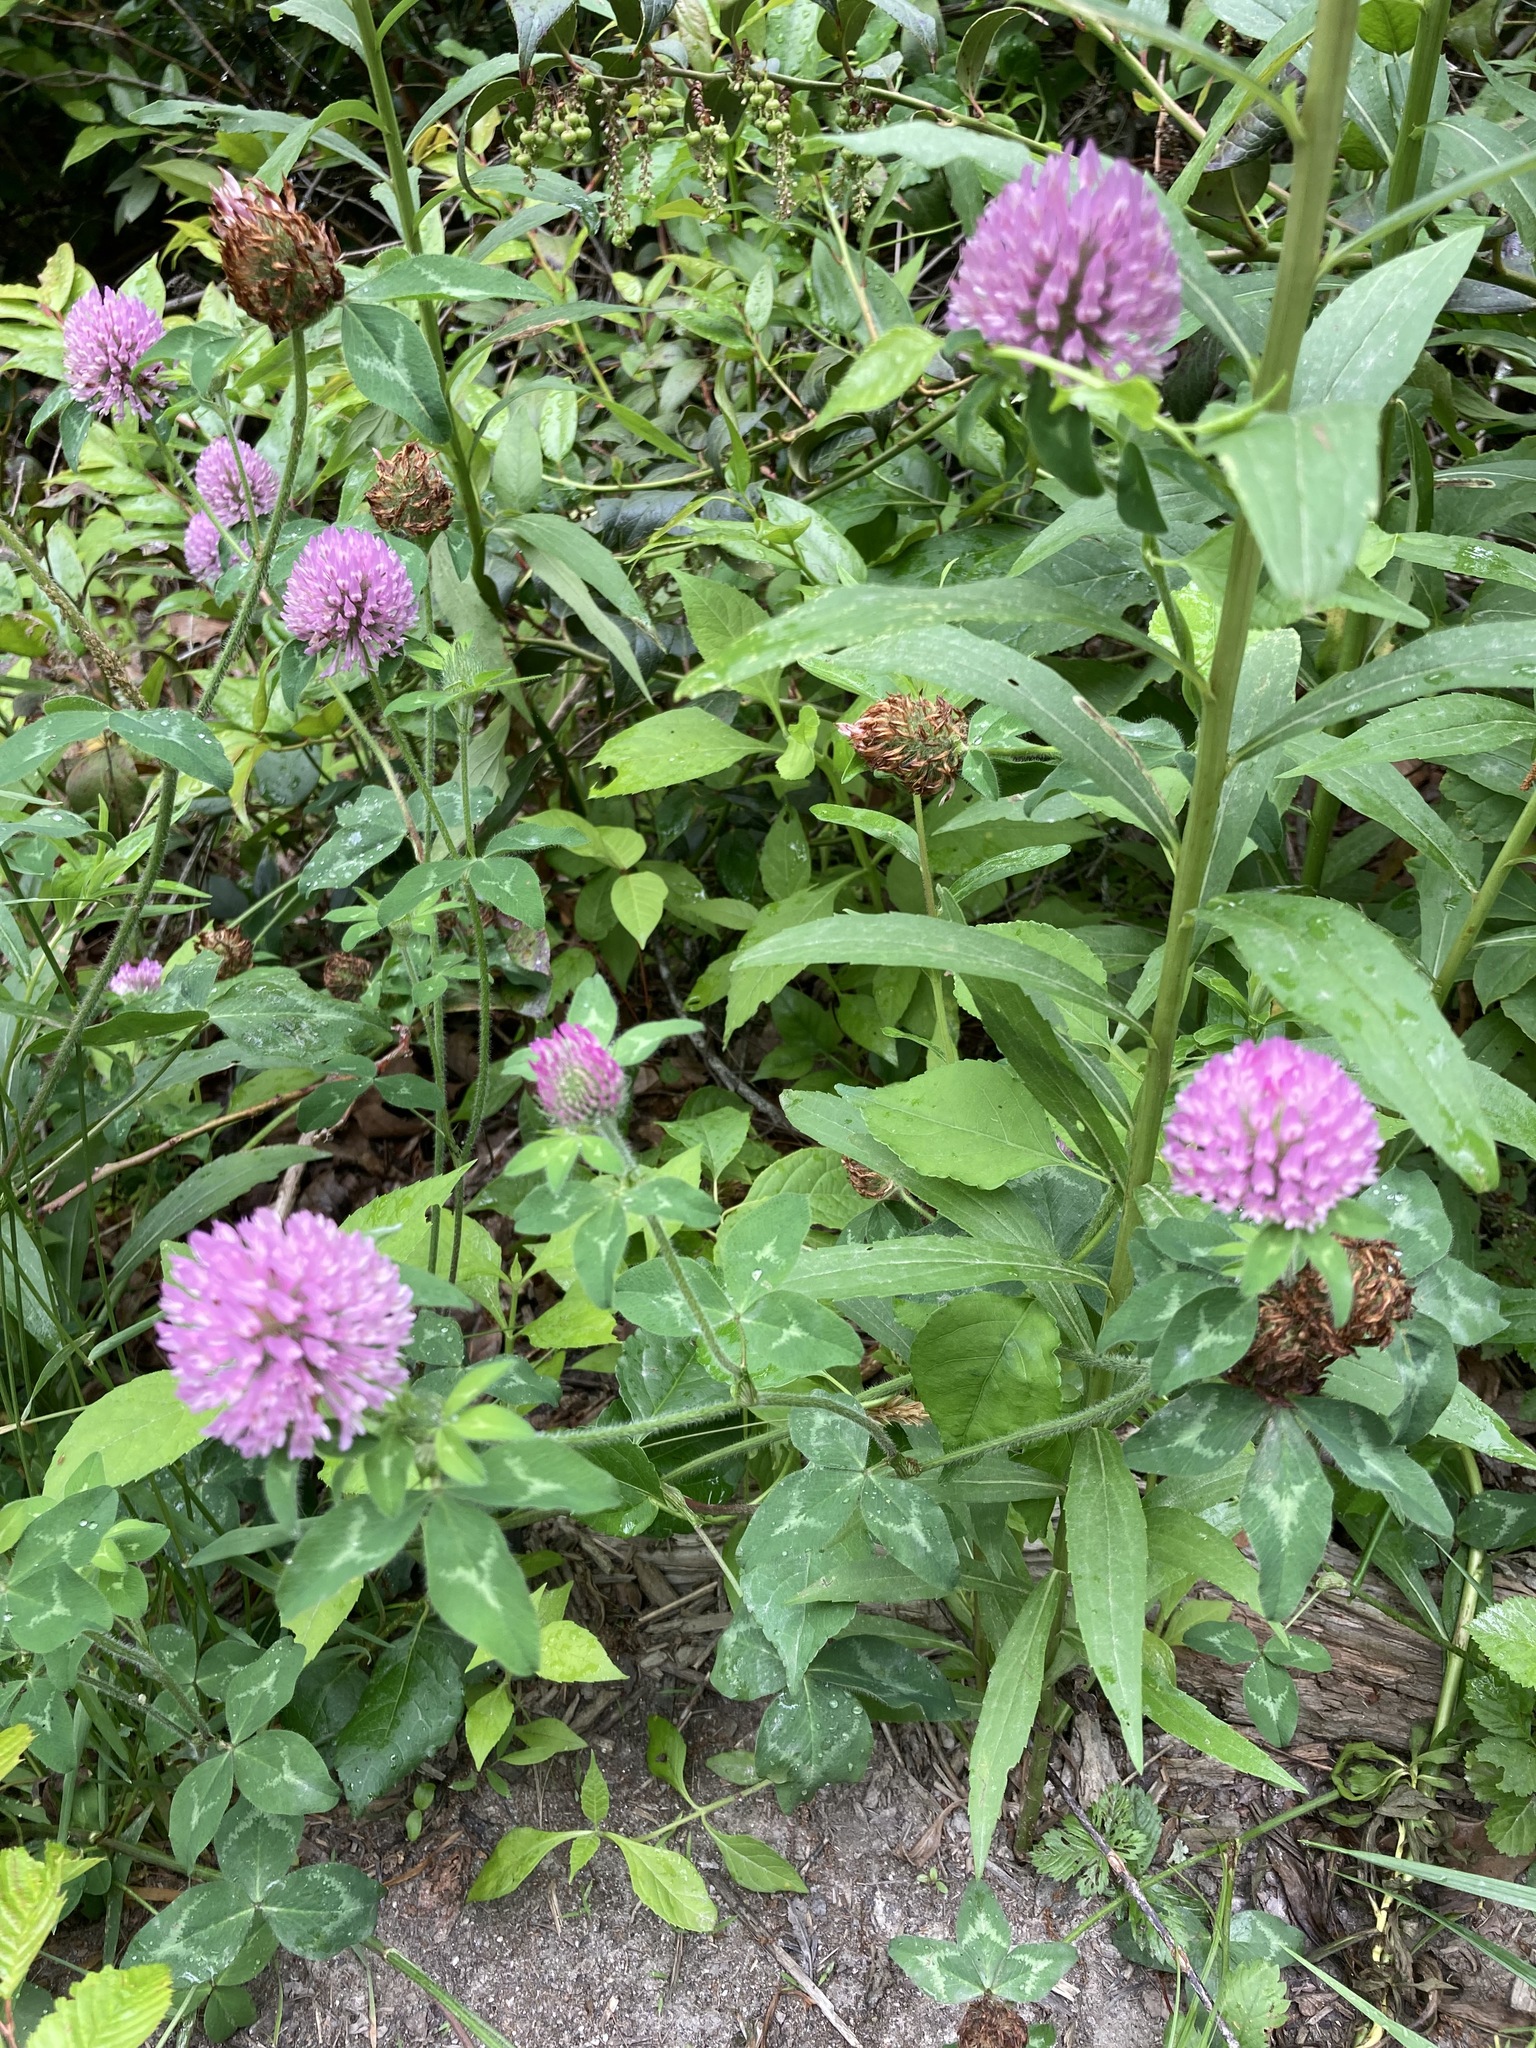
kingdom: Plantae
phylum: Tracheophyta
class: Magnoliopsida
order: Fabales
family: Fabaceae
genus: Trifolium
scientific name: Trifolium pratense
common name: Red clover
